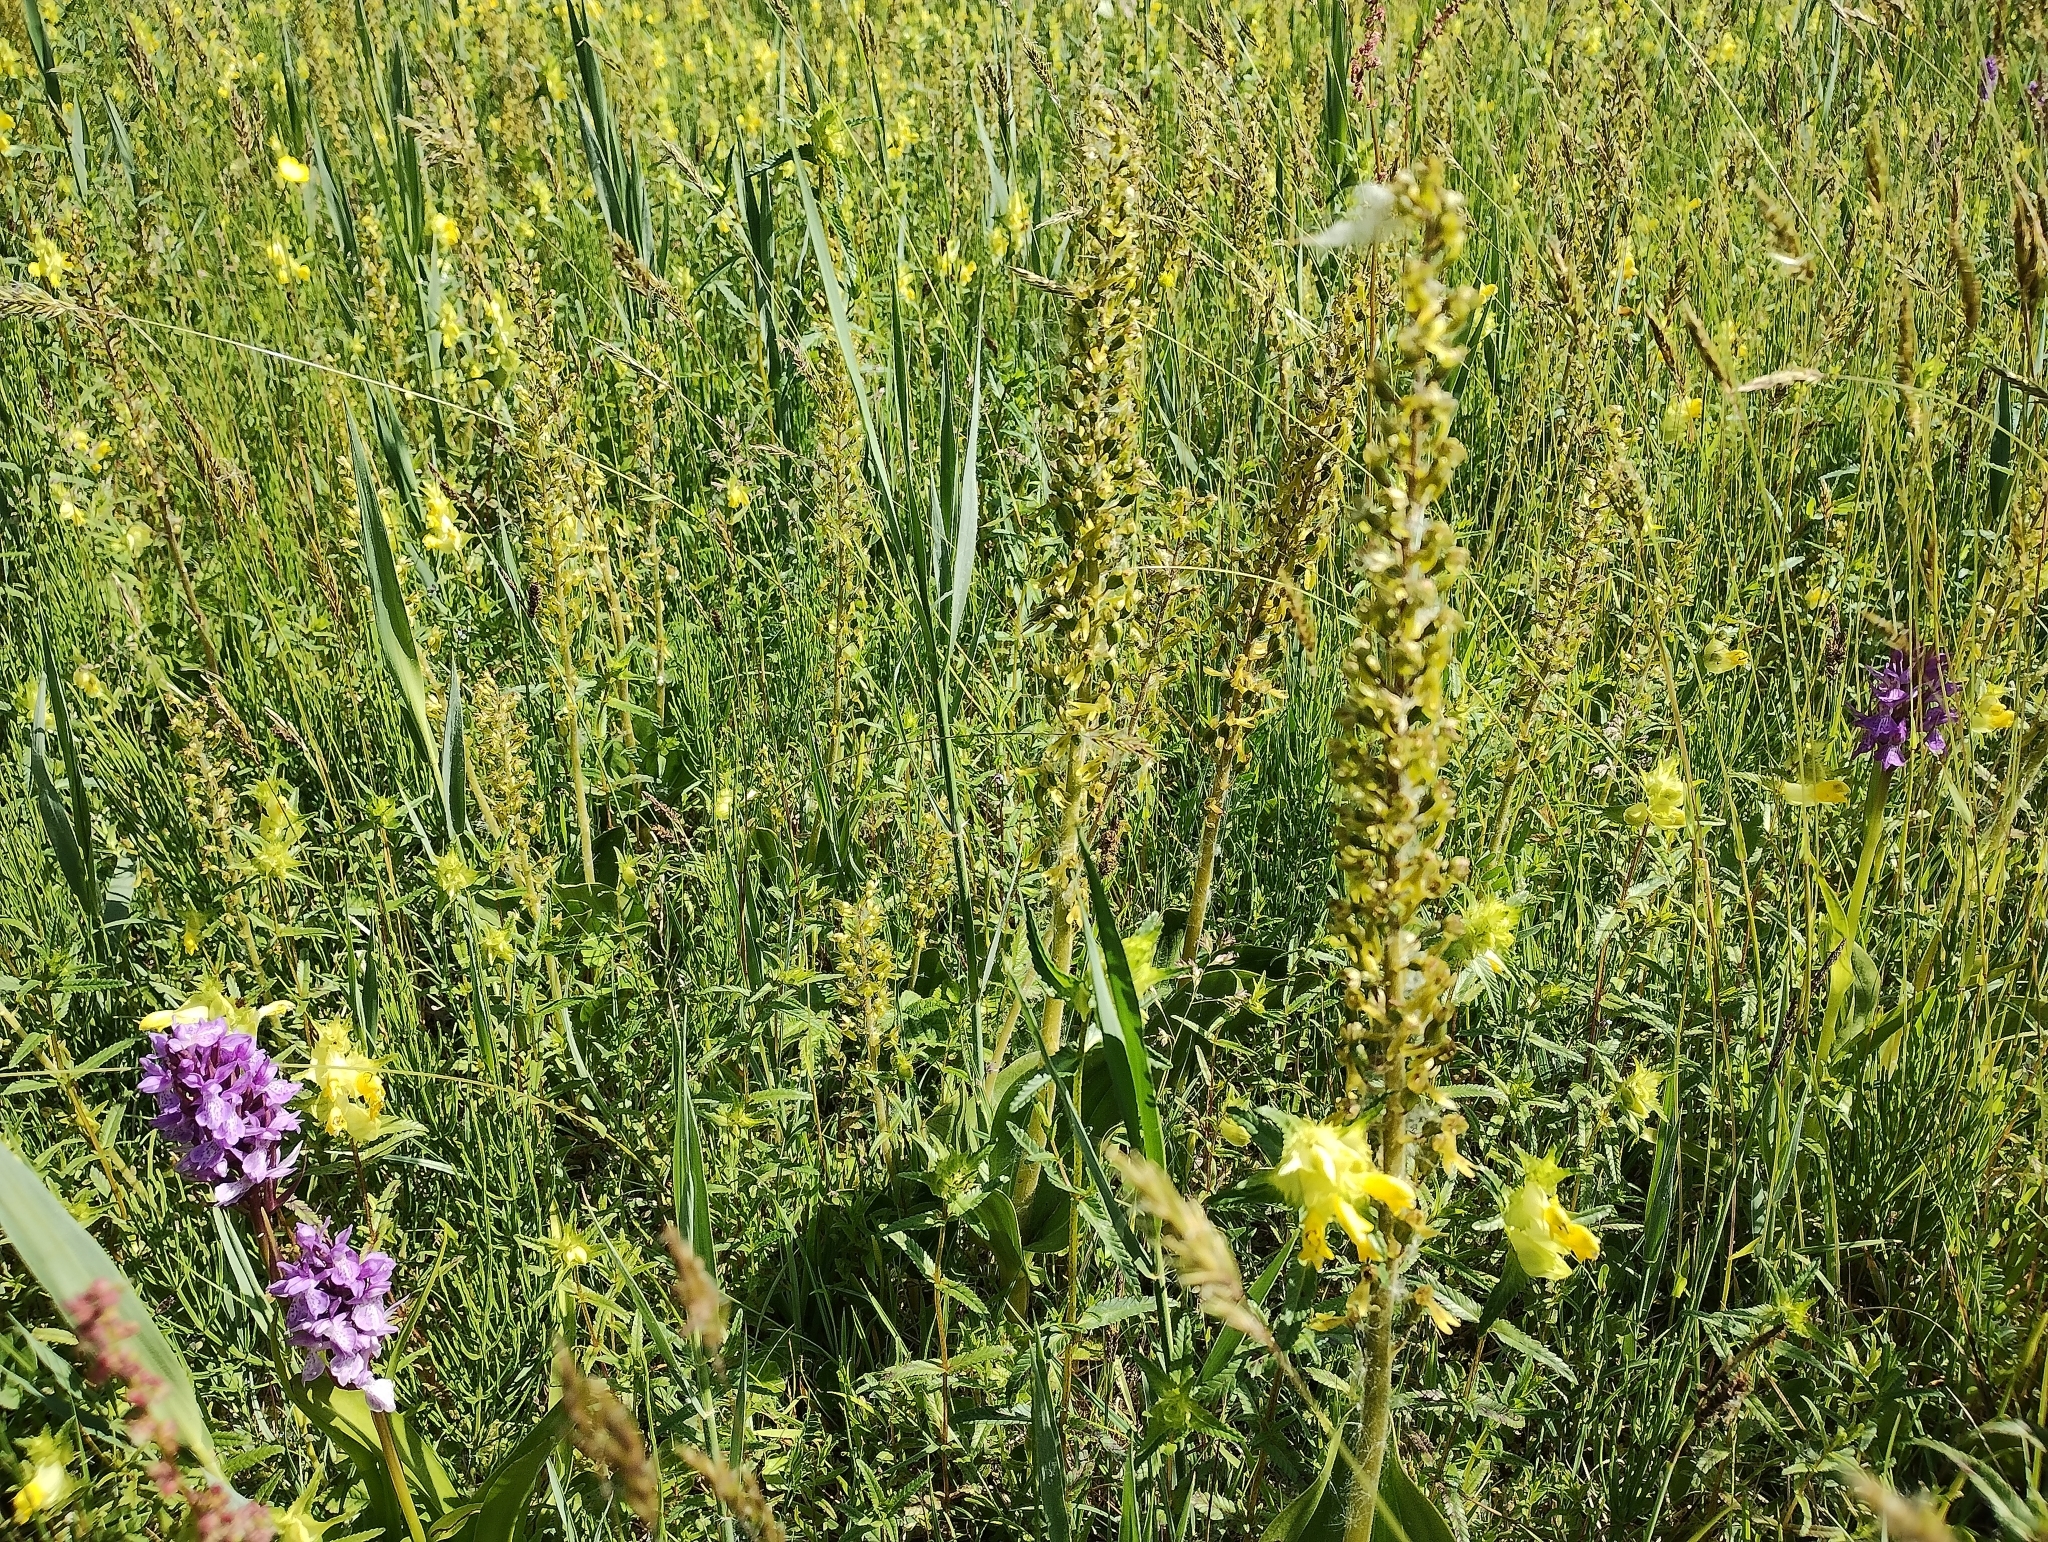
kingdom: Plantae
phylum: Tracheophyta
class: Liliopsida
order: Asparagales
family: Orchidaceae
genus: Neottia
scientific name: Neottia ovata
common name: Common twayblade
